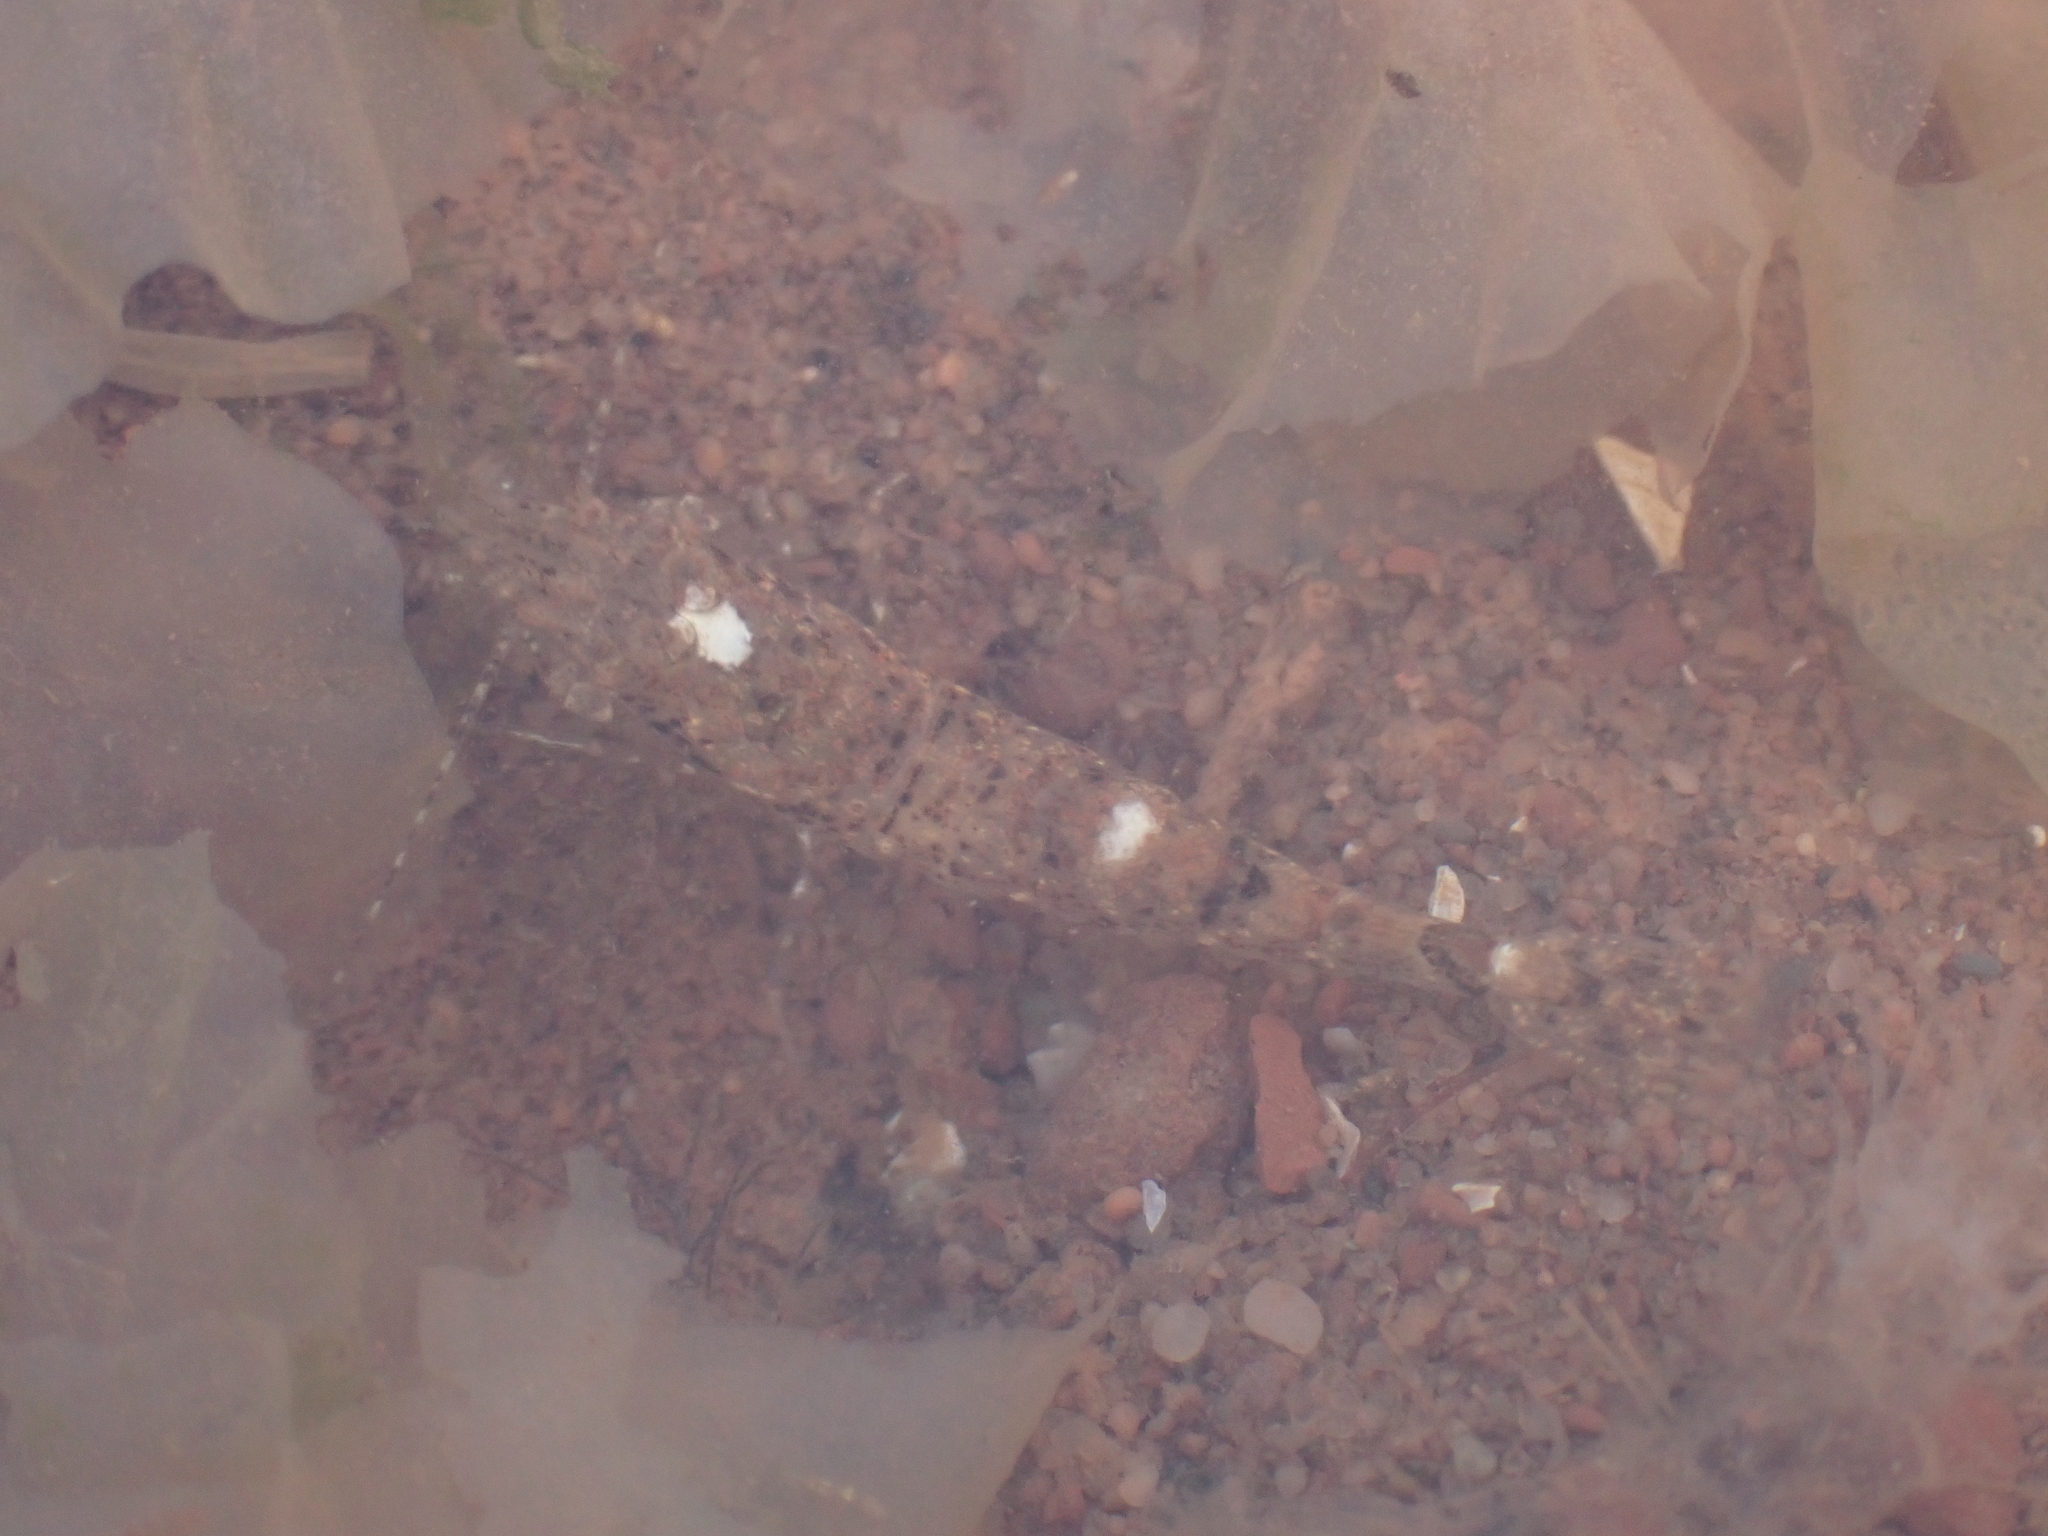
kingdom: Animalia
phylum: Arthropoda
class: Malacostraca
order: Decapoda
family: Crangonidae
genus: Crangon
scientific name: Crangon septemspinosa
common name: Bail shrimp
